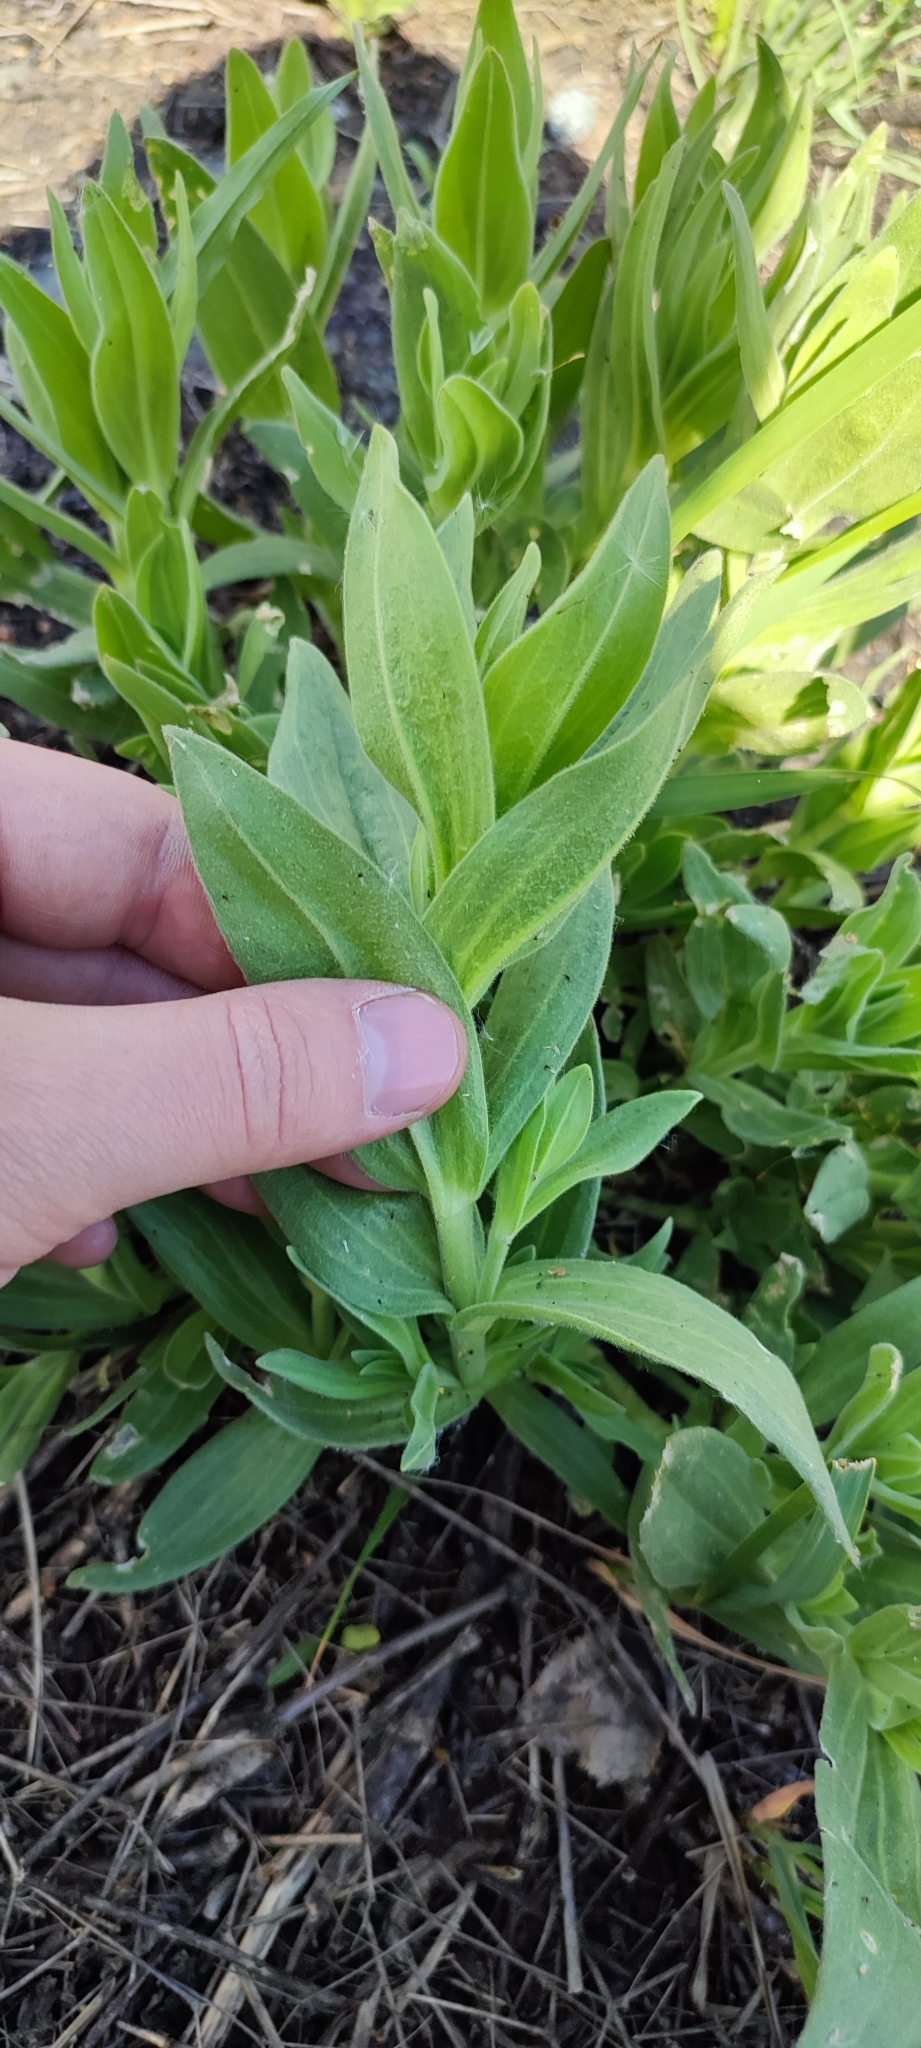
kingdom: Plantae
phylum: Tracheophyta
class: Magnoliopsida
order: Caryophyllales
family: Caryophyllaceae
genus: Gypsophila
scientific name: Gypsophila perfoliata
